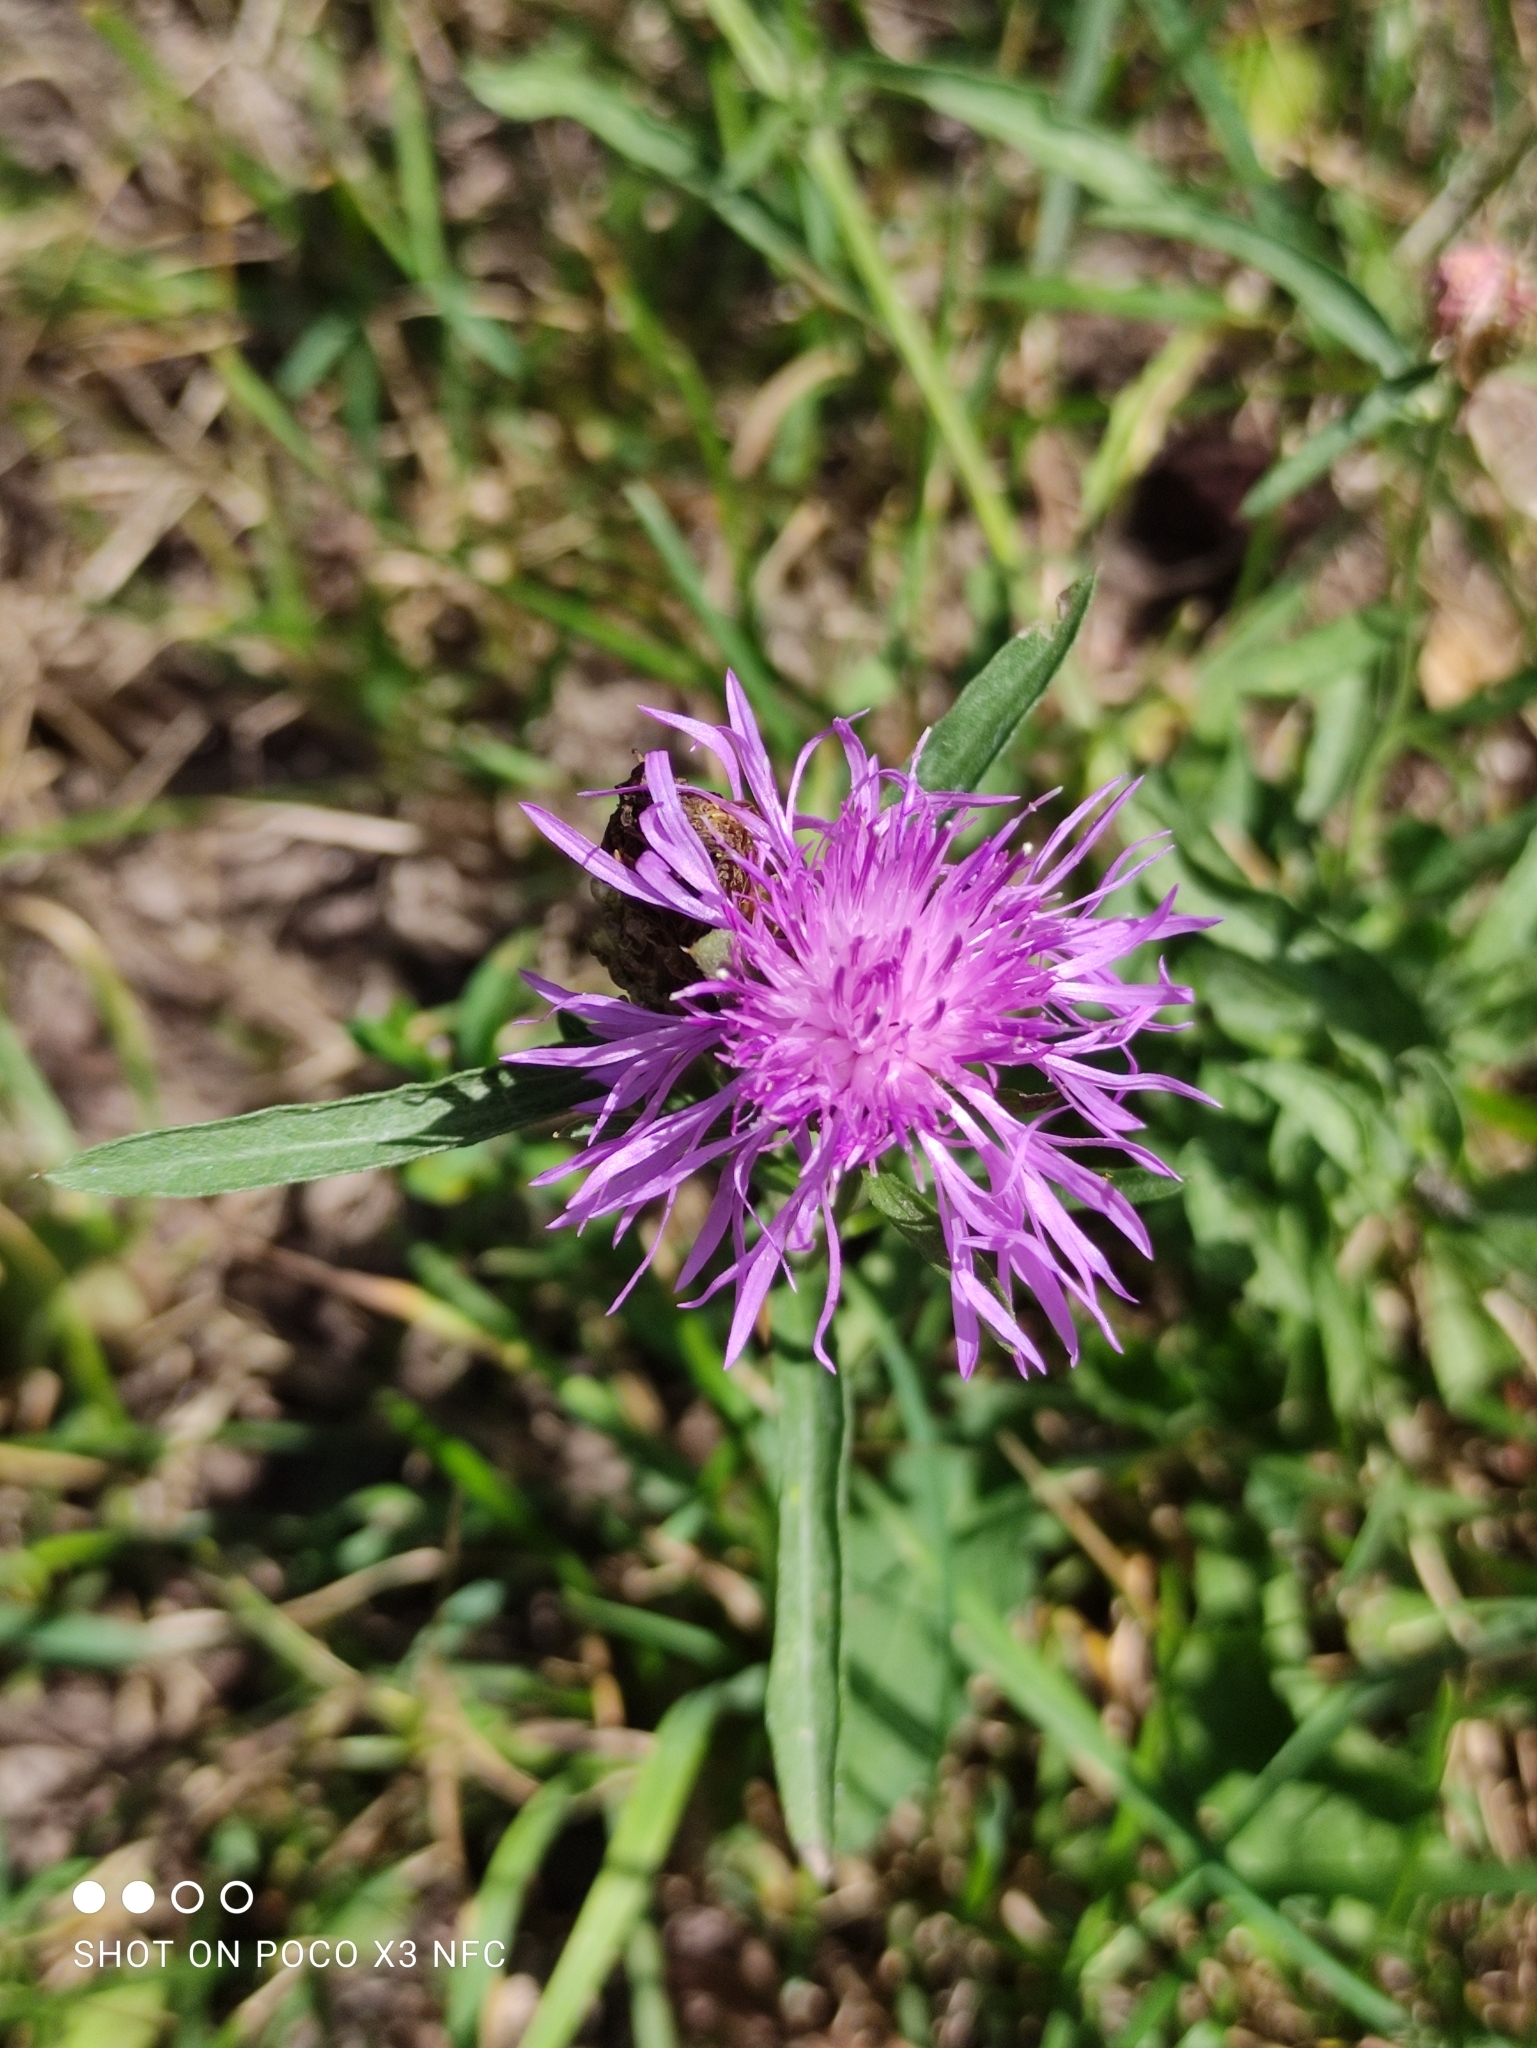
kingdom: Plantae
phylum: Tracheophyta
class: Magnoliopsida
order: Asterales
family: Asteraceae
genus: Centaurea
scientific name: Centaurea jacea
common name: Brown knapweed
